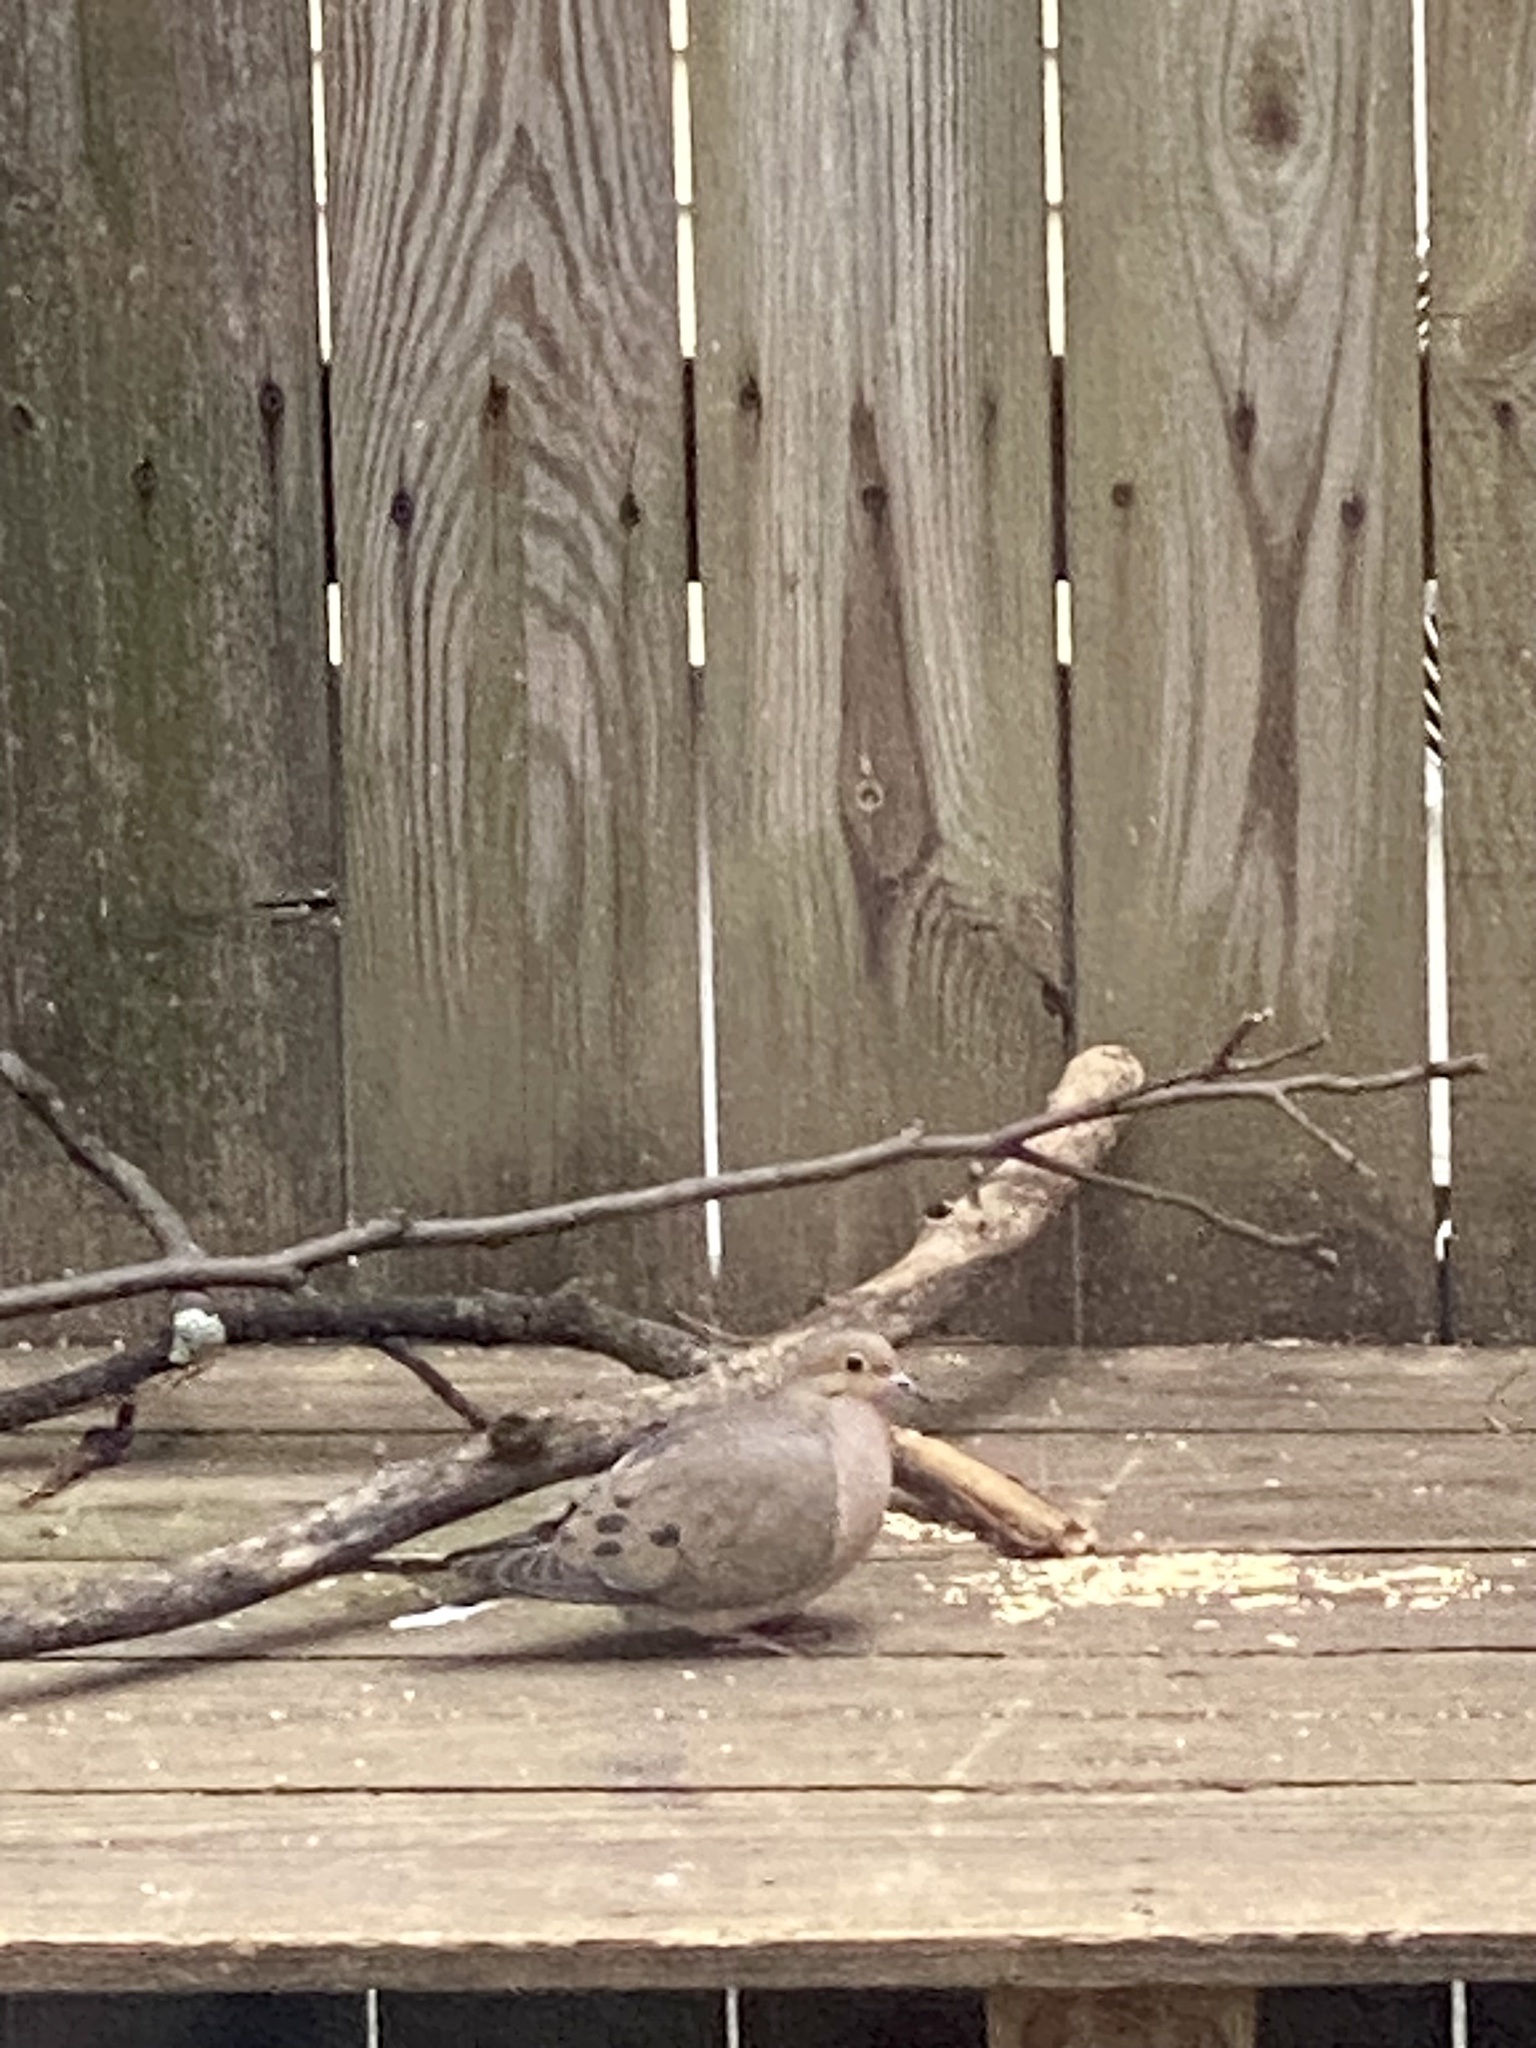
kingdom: Animalia
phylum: Chordata
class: Aves
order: Columbiformes
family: Columbidae
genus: Zenaida
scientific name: Zenaida macroura
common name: Mourning dove
